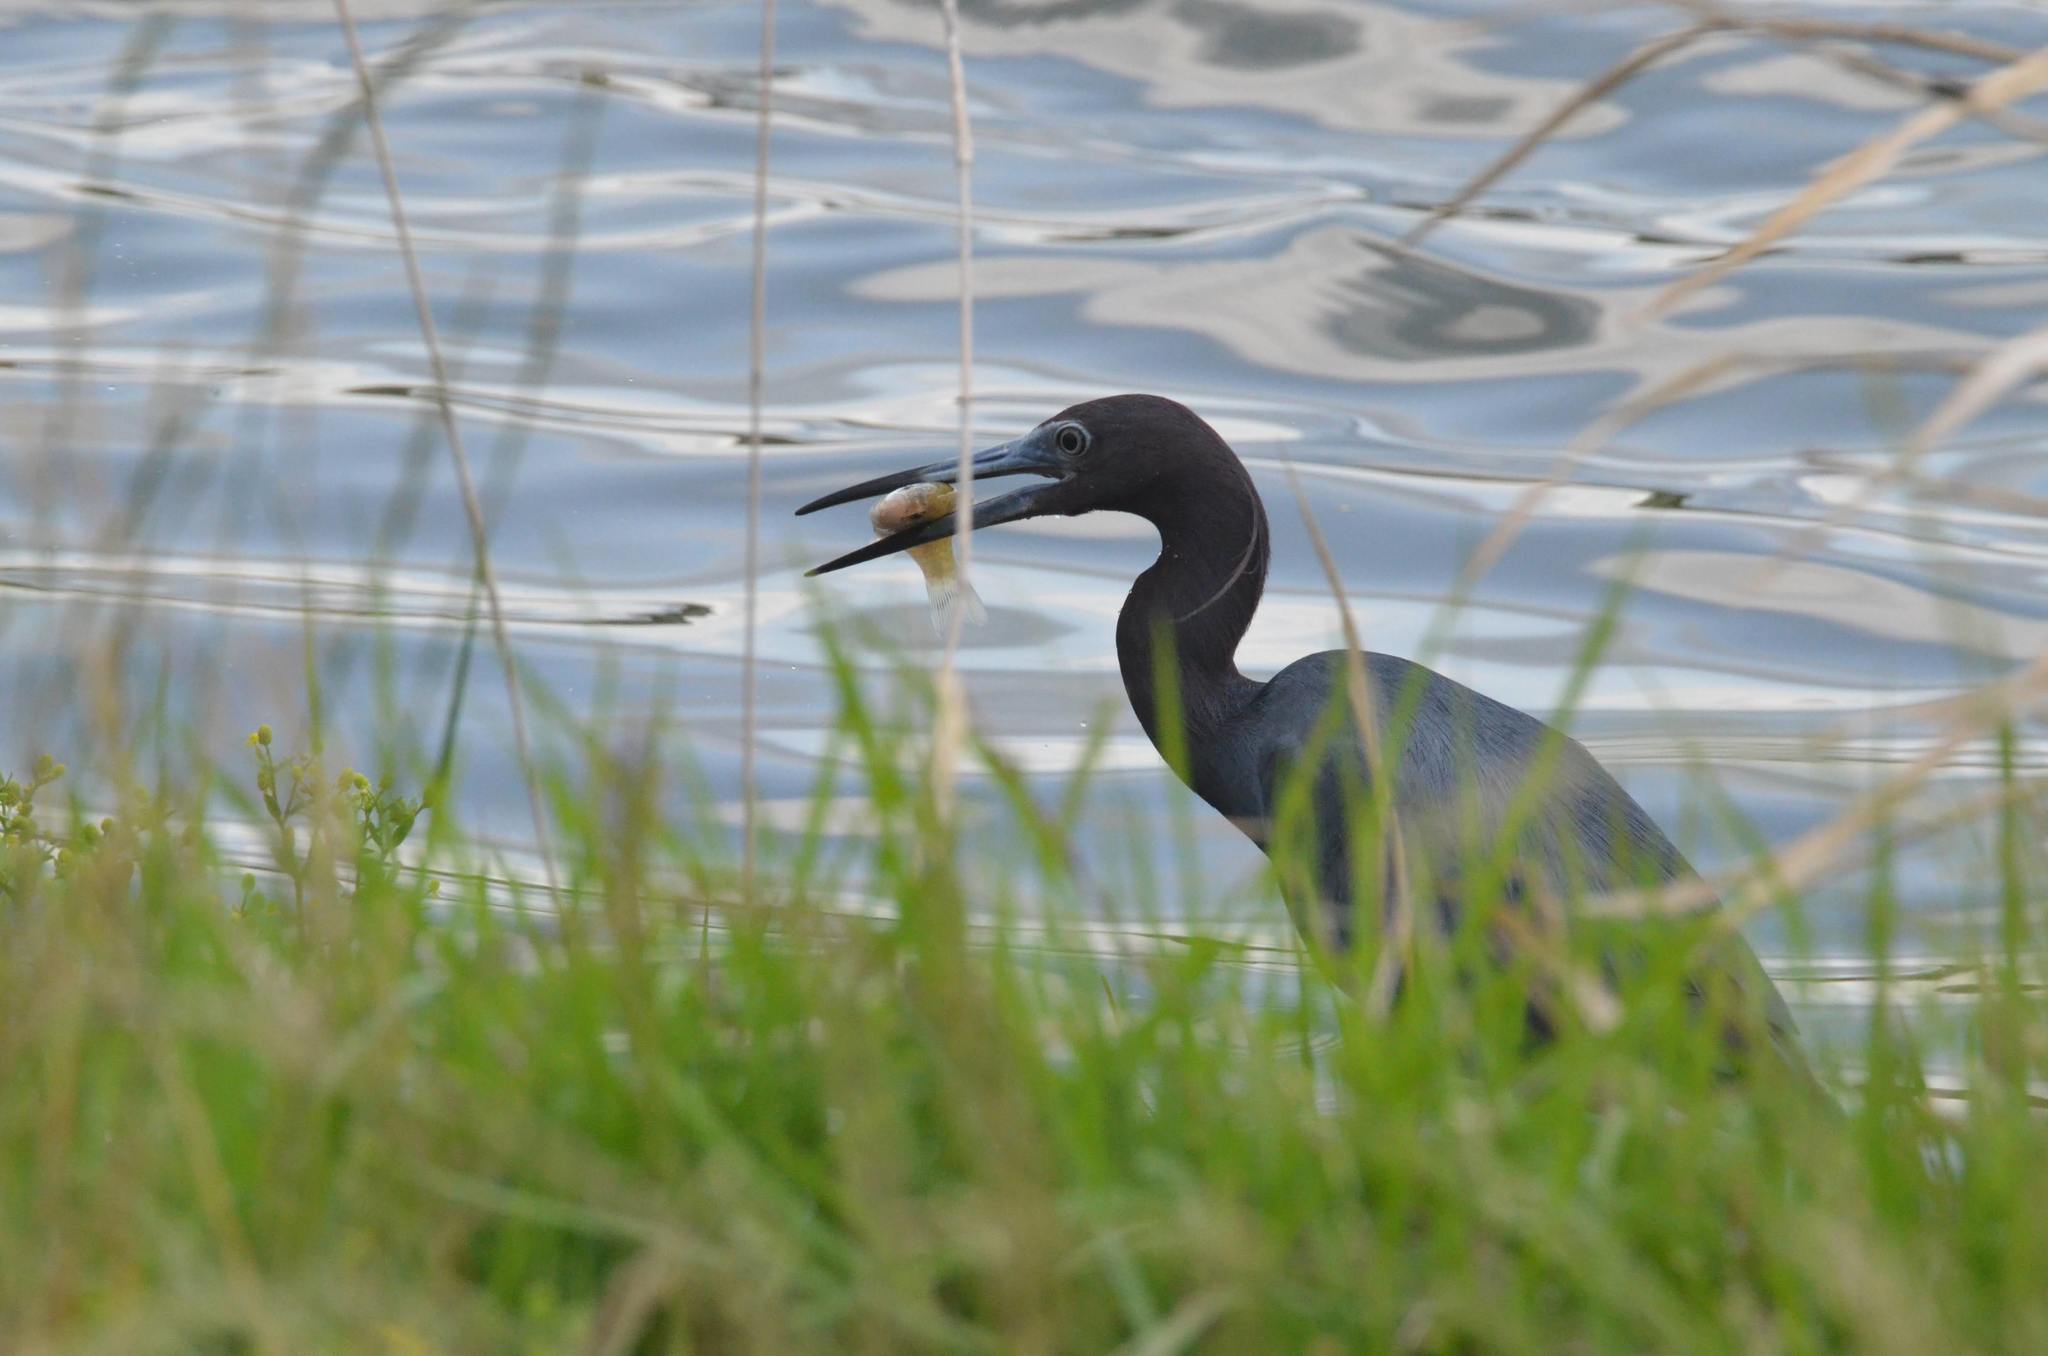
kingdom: Animalia
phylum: Chordata
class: Aves
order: Pelecaniformes
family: Ardeidae
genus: Egretta
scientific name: Egretta caerulea
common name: Little blue heron
